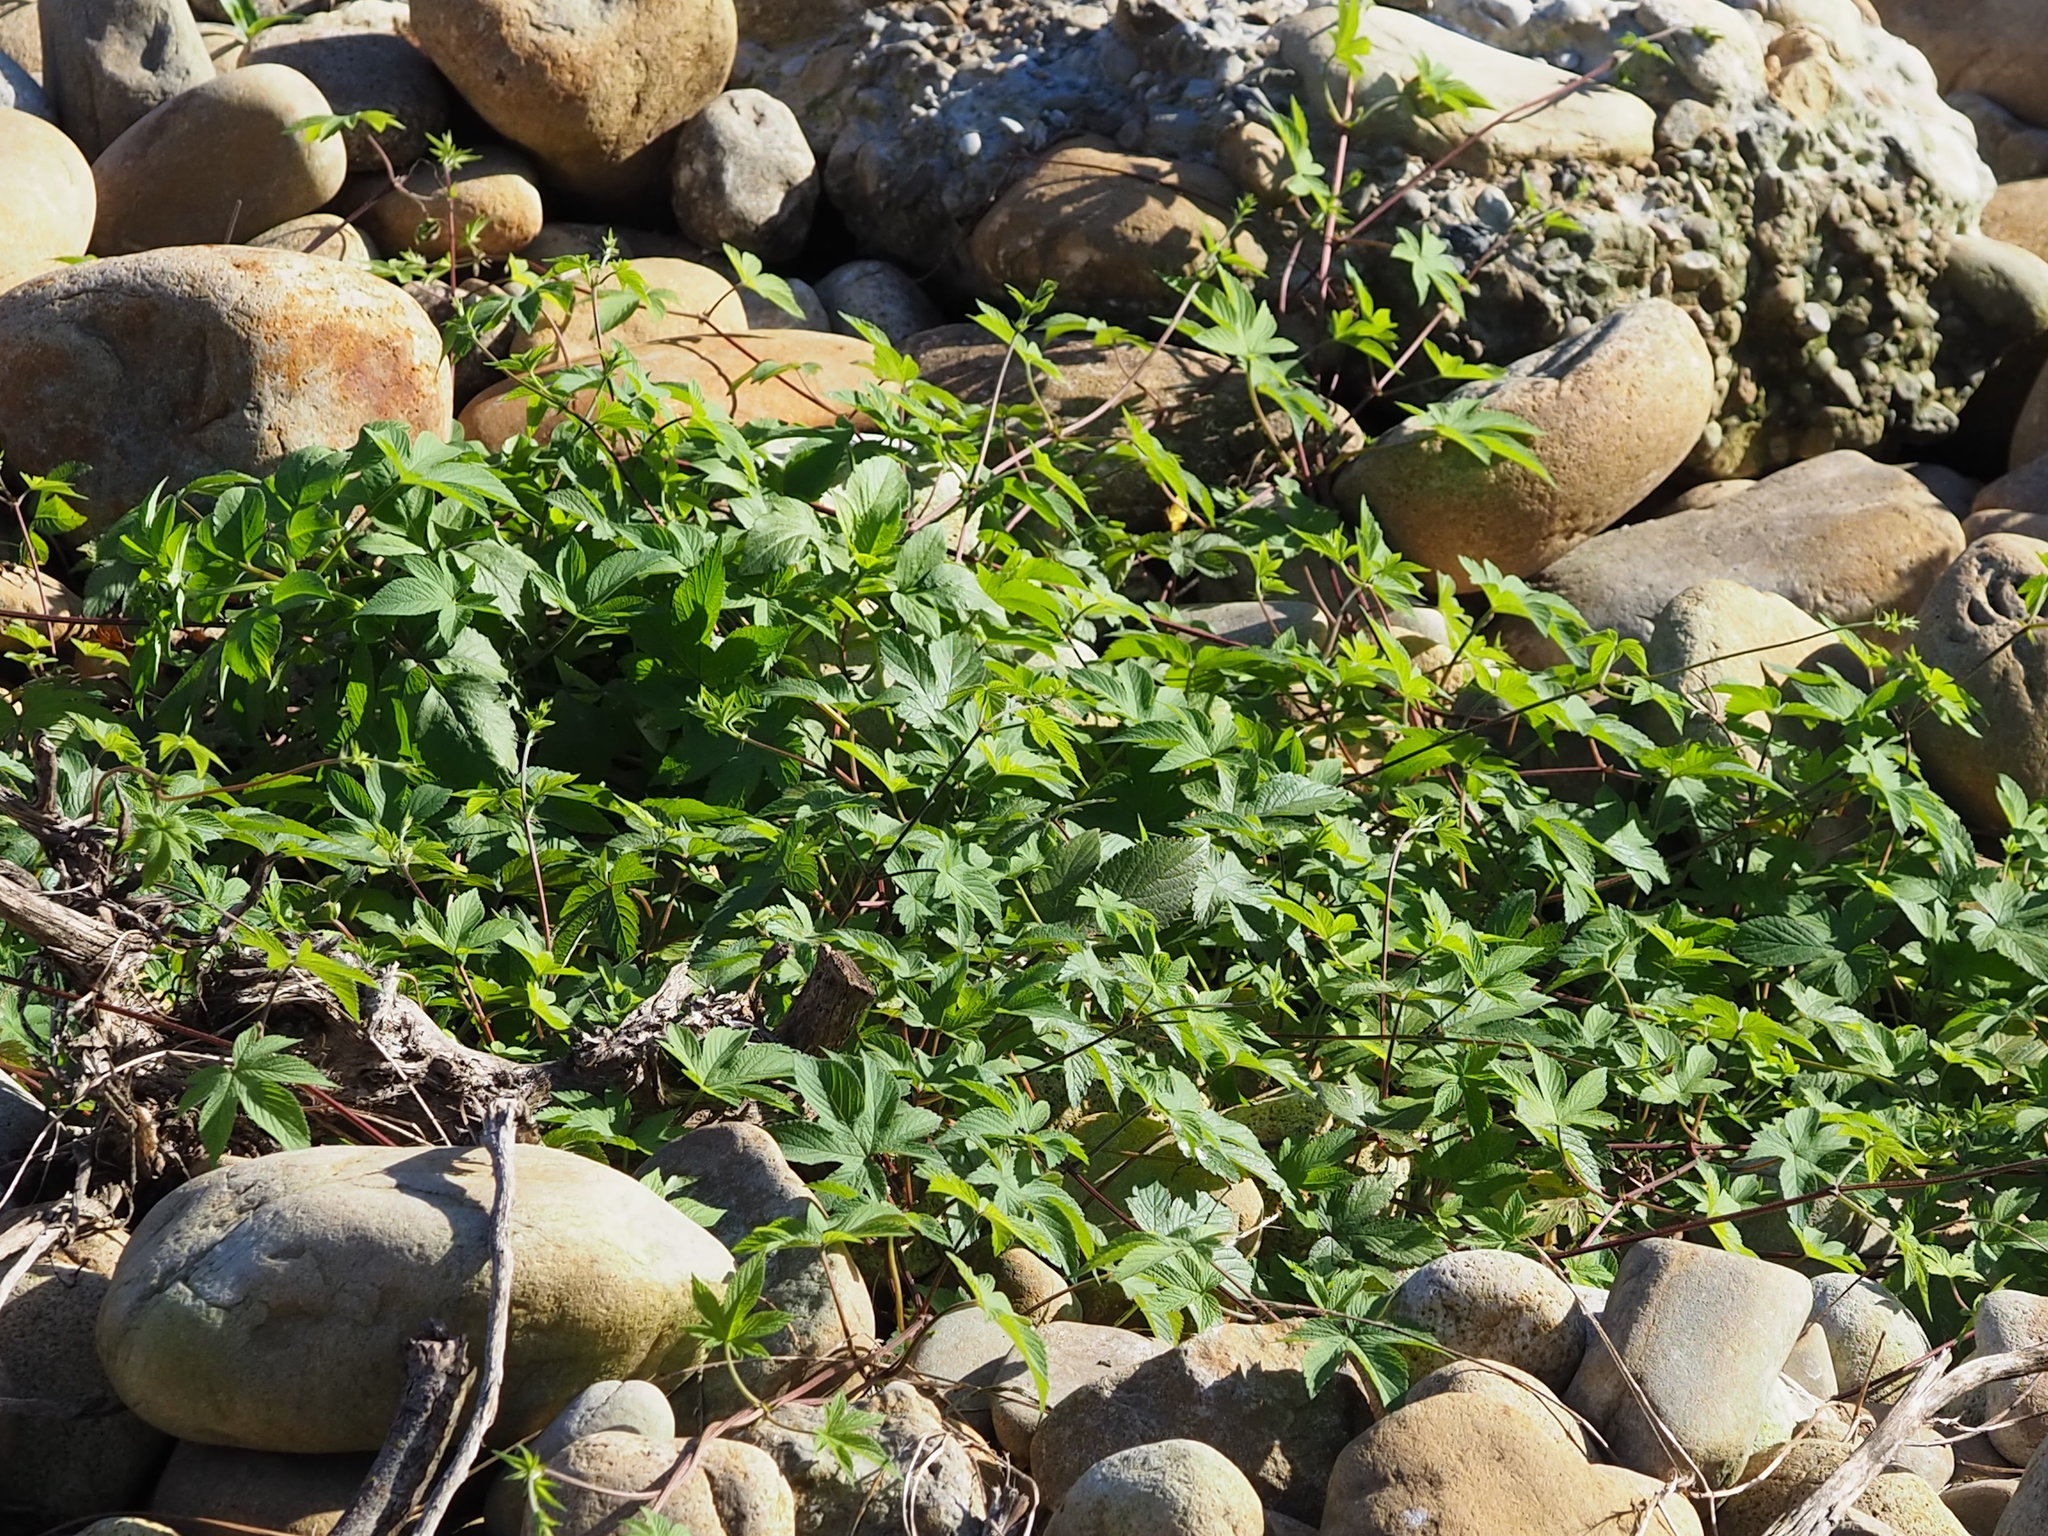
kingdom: Plantae
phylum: Tracheophyta
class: Magnoliopsida
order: Rosales
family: Cannabaceae
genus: Humulus
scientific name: Humulus scandens
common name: Japanese hop
